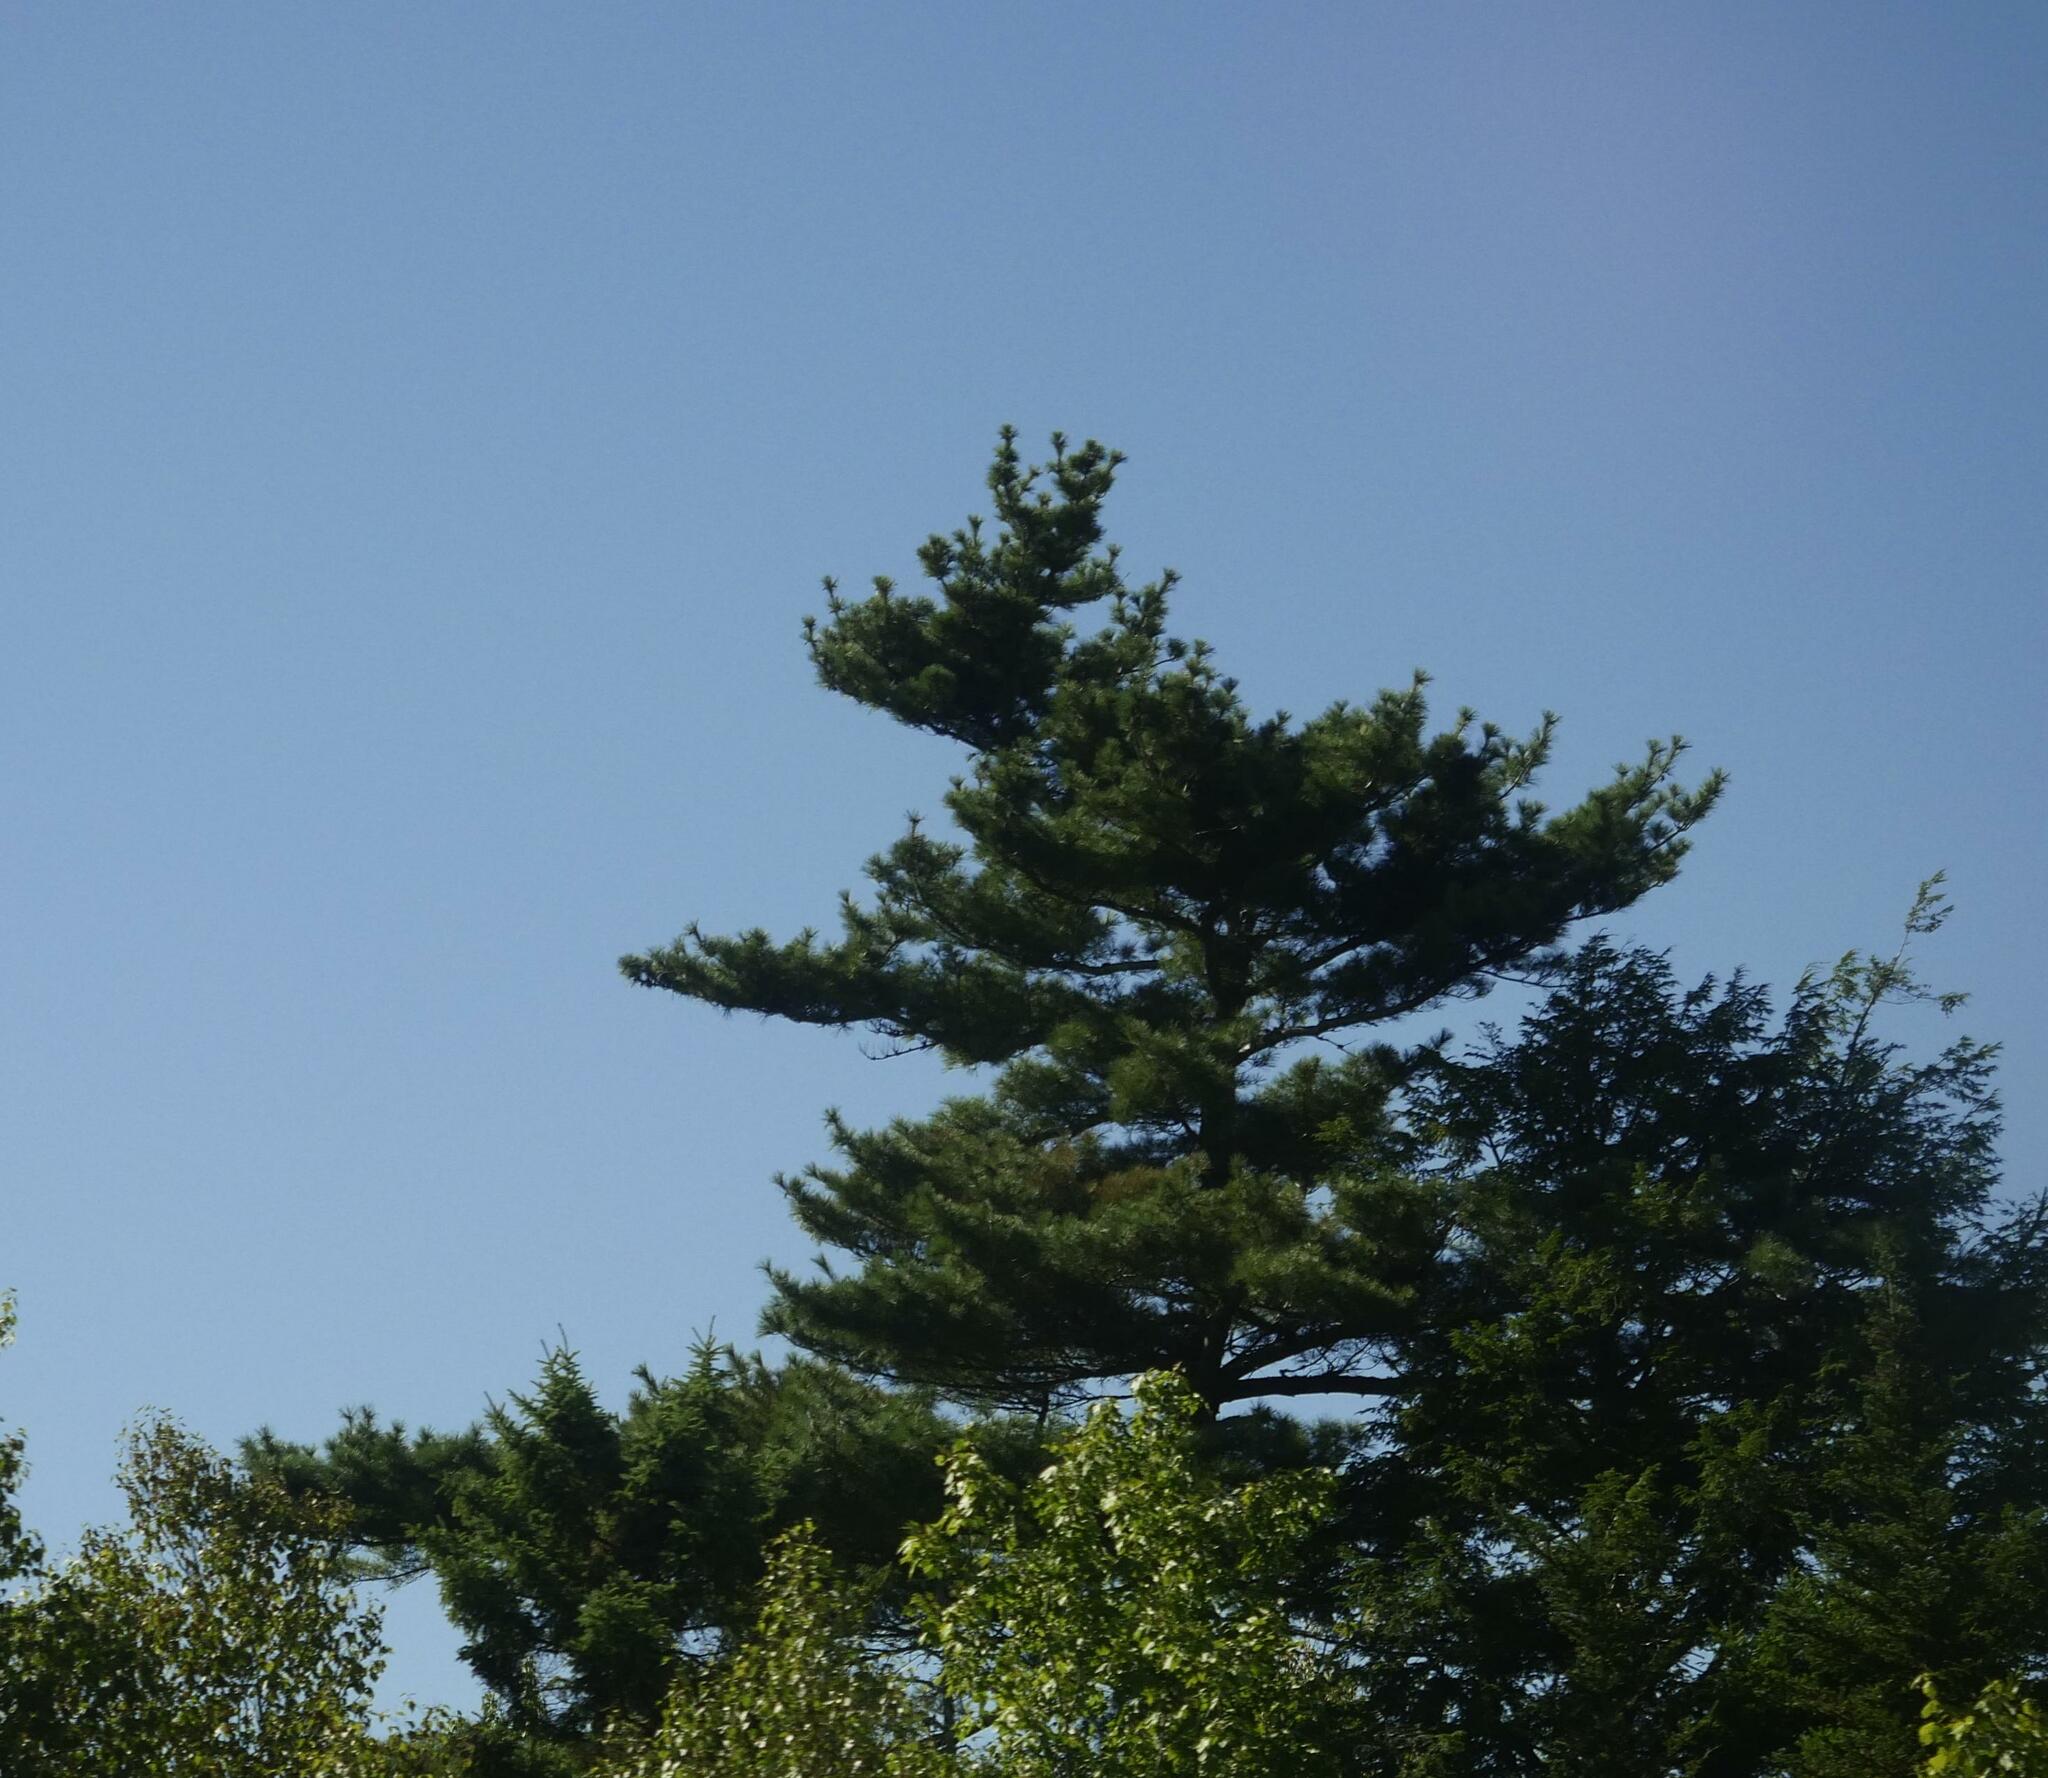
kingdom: Plantae
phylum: Tracheophyta
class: Pinopsida
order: Pinales
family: Pinaceae
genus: Pinus
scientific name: Pinus strobus
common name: Weymouth pine
